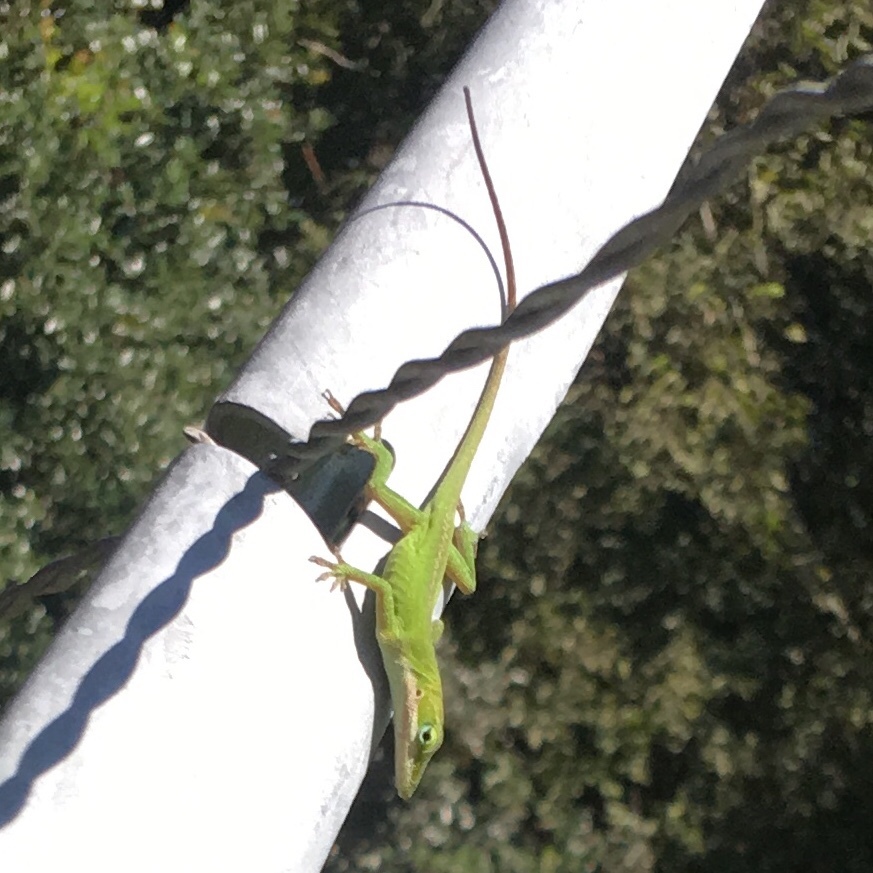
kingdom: Animalia
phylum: Chordata
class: Squamata
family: Dactyloidae
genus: Anolis
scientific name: Anolis carolinensis
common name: Green anole
